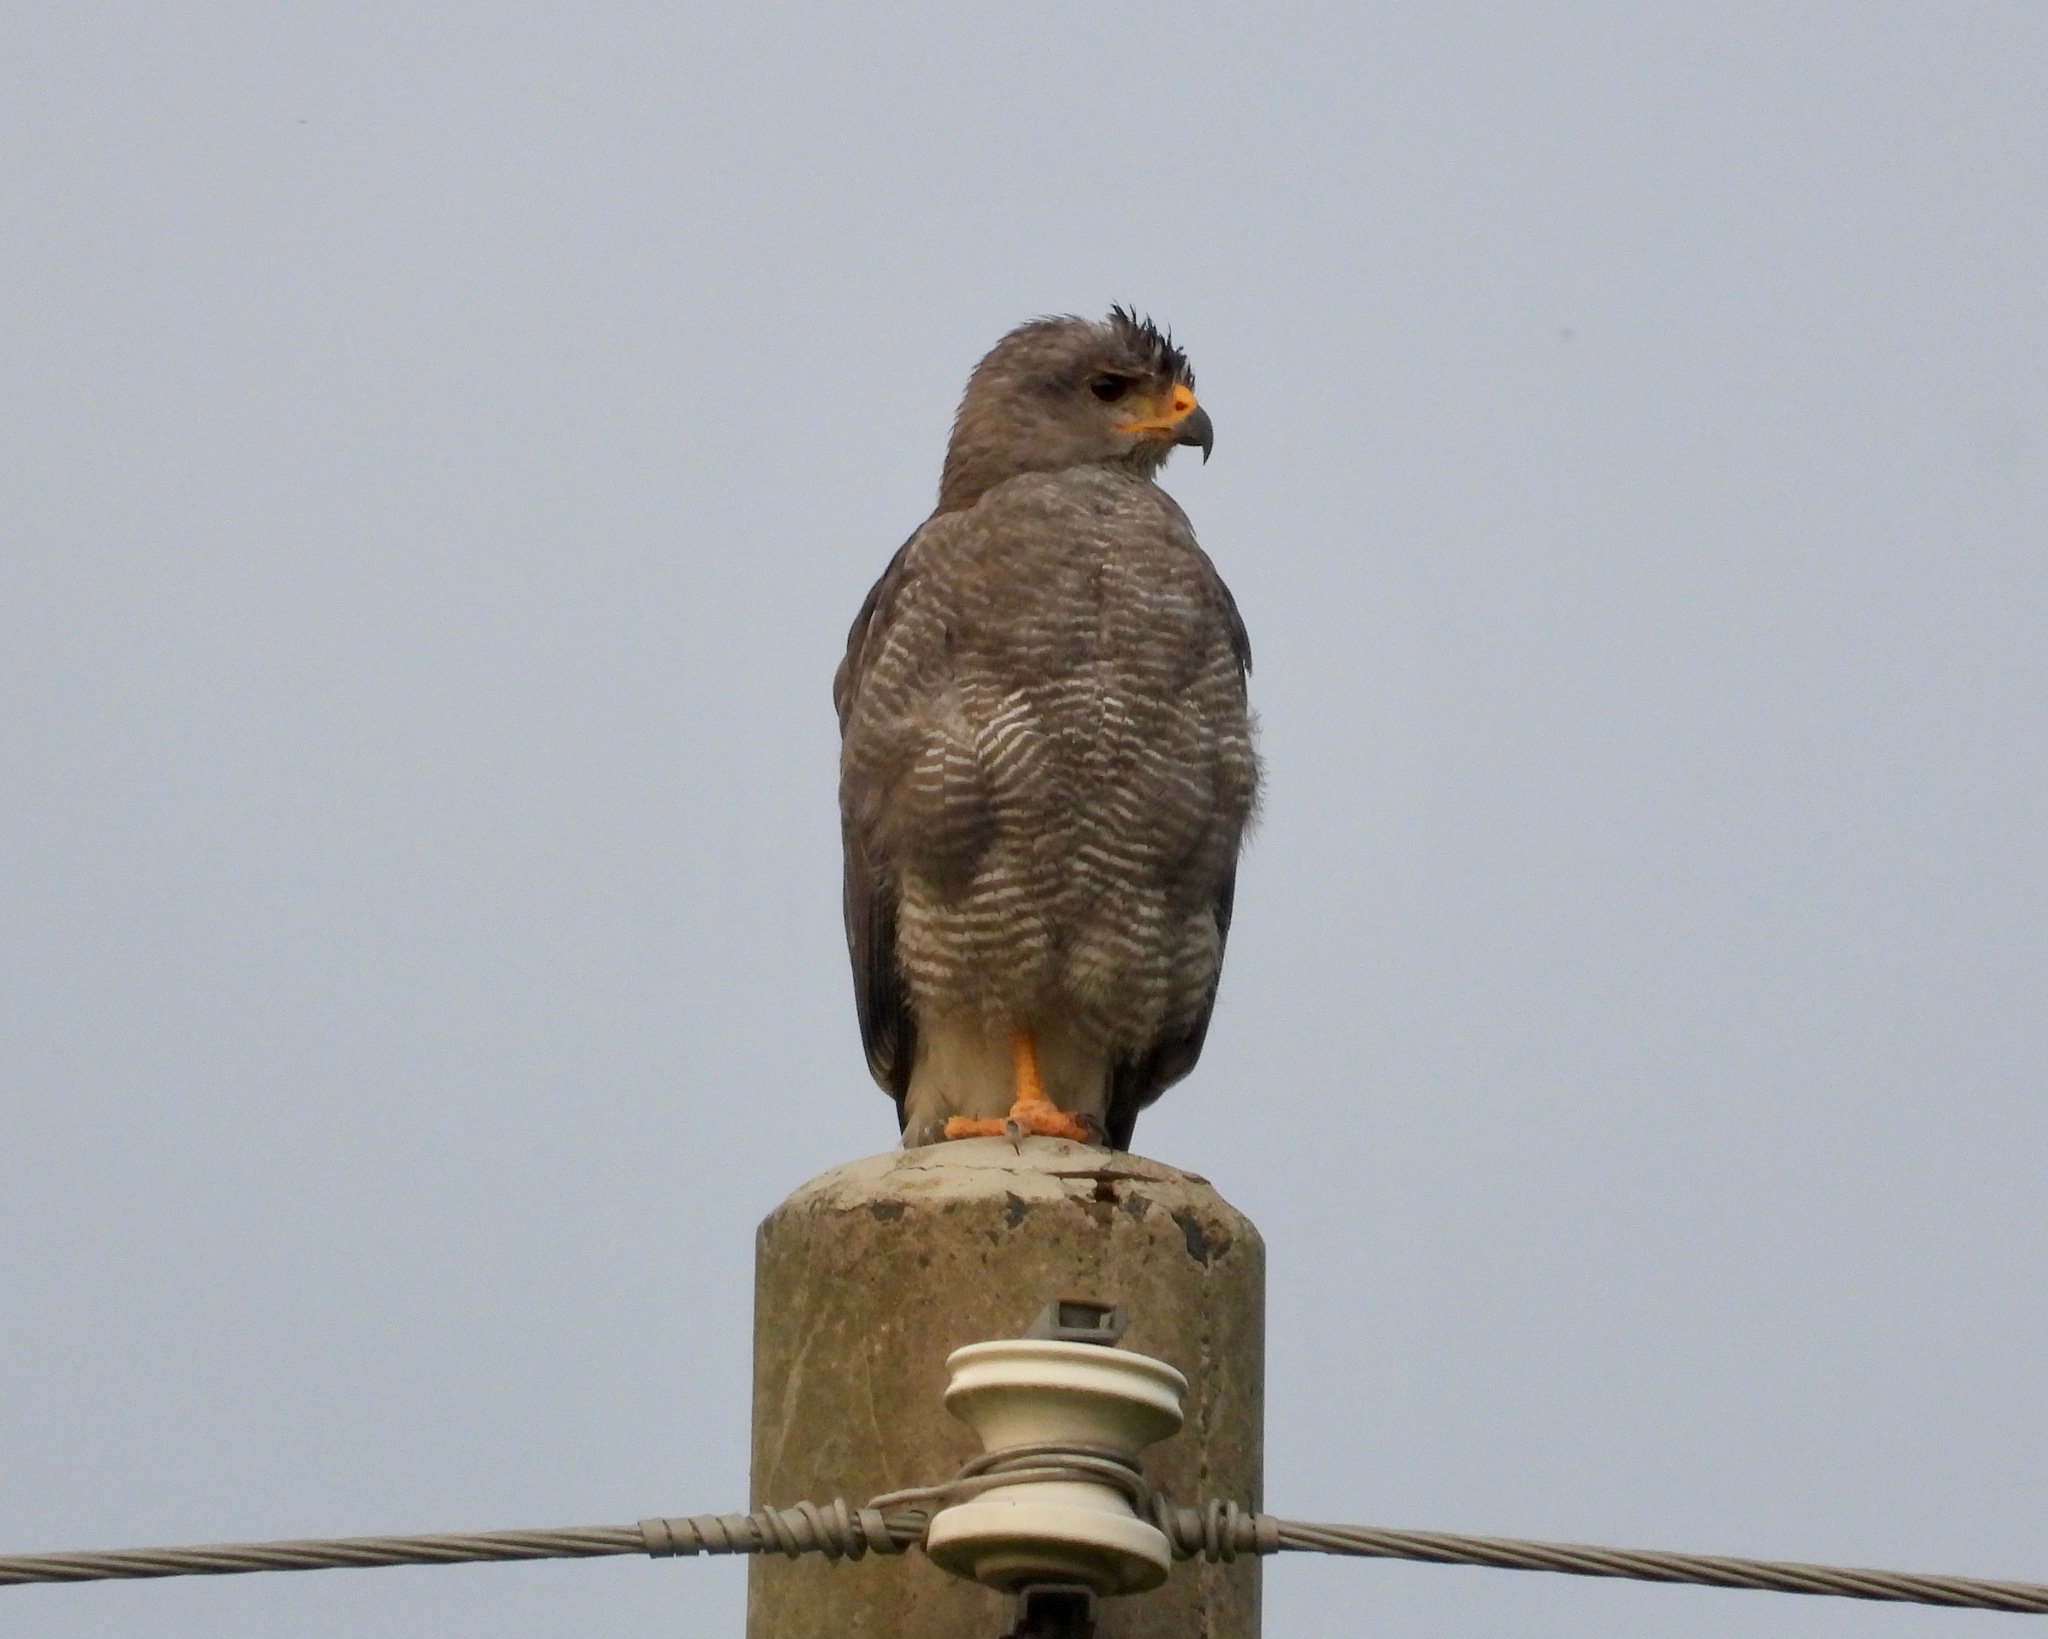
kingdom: Animalia
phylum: Chordata
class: Aves
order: Accipitriformes
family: Accipitridae
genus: Buteo
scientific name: Buteo nitidus
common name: Grey-lined hawk
